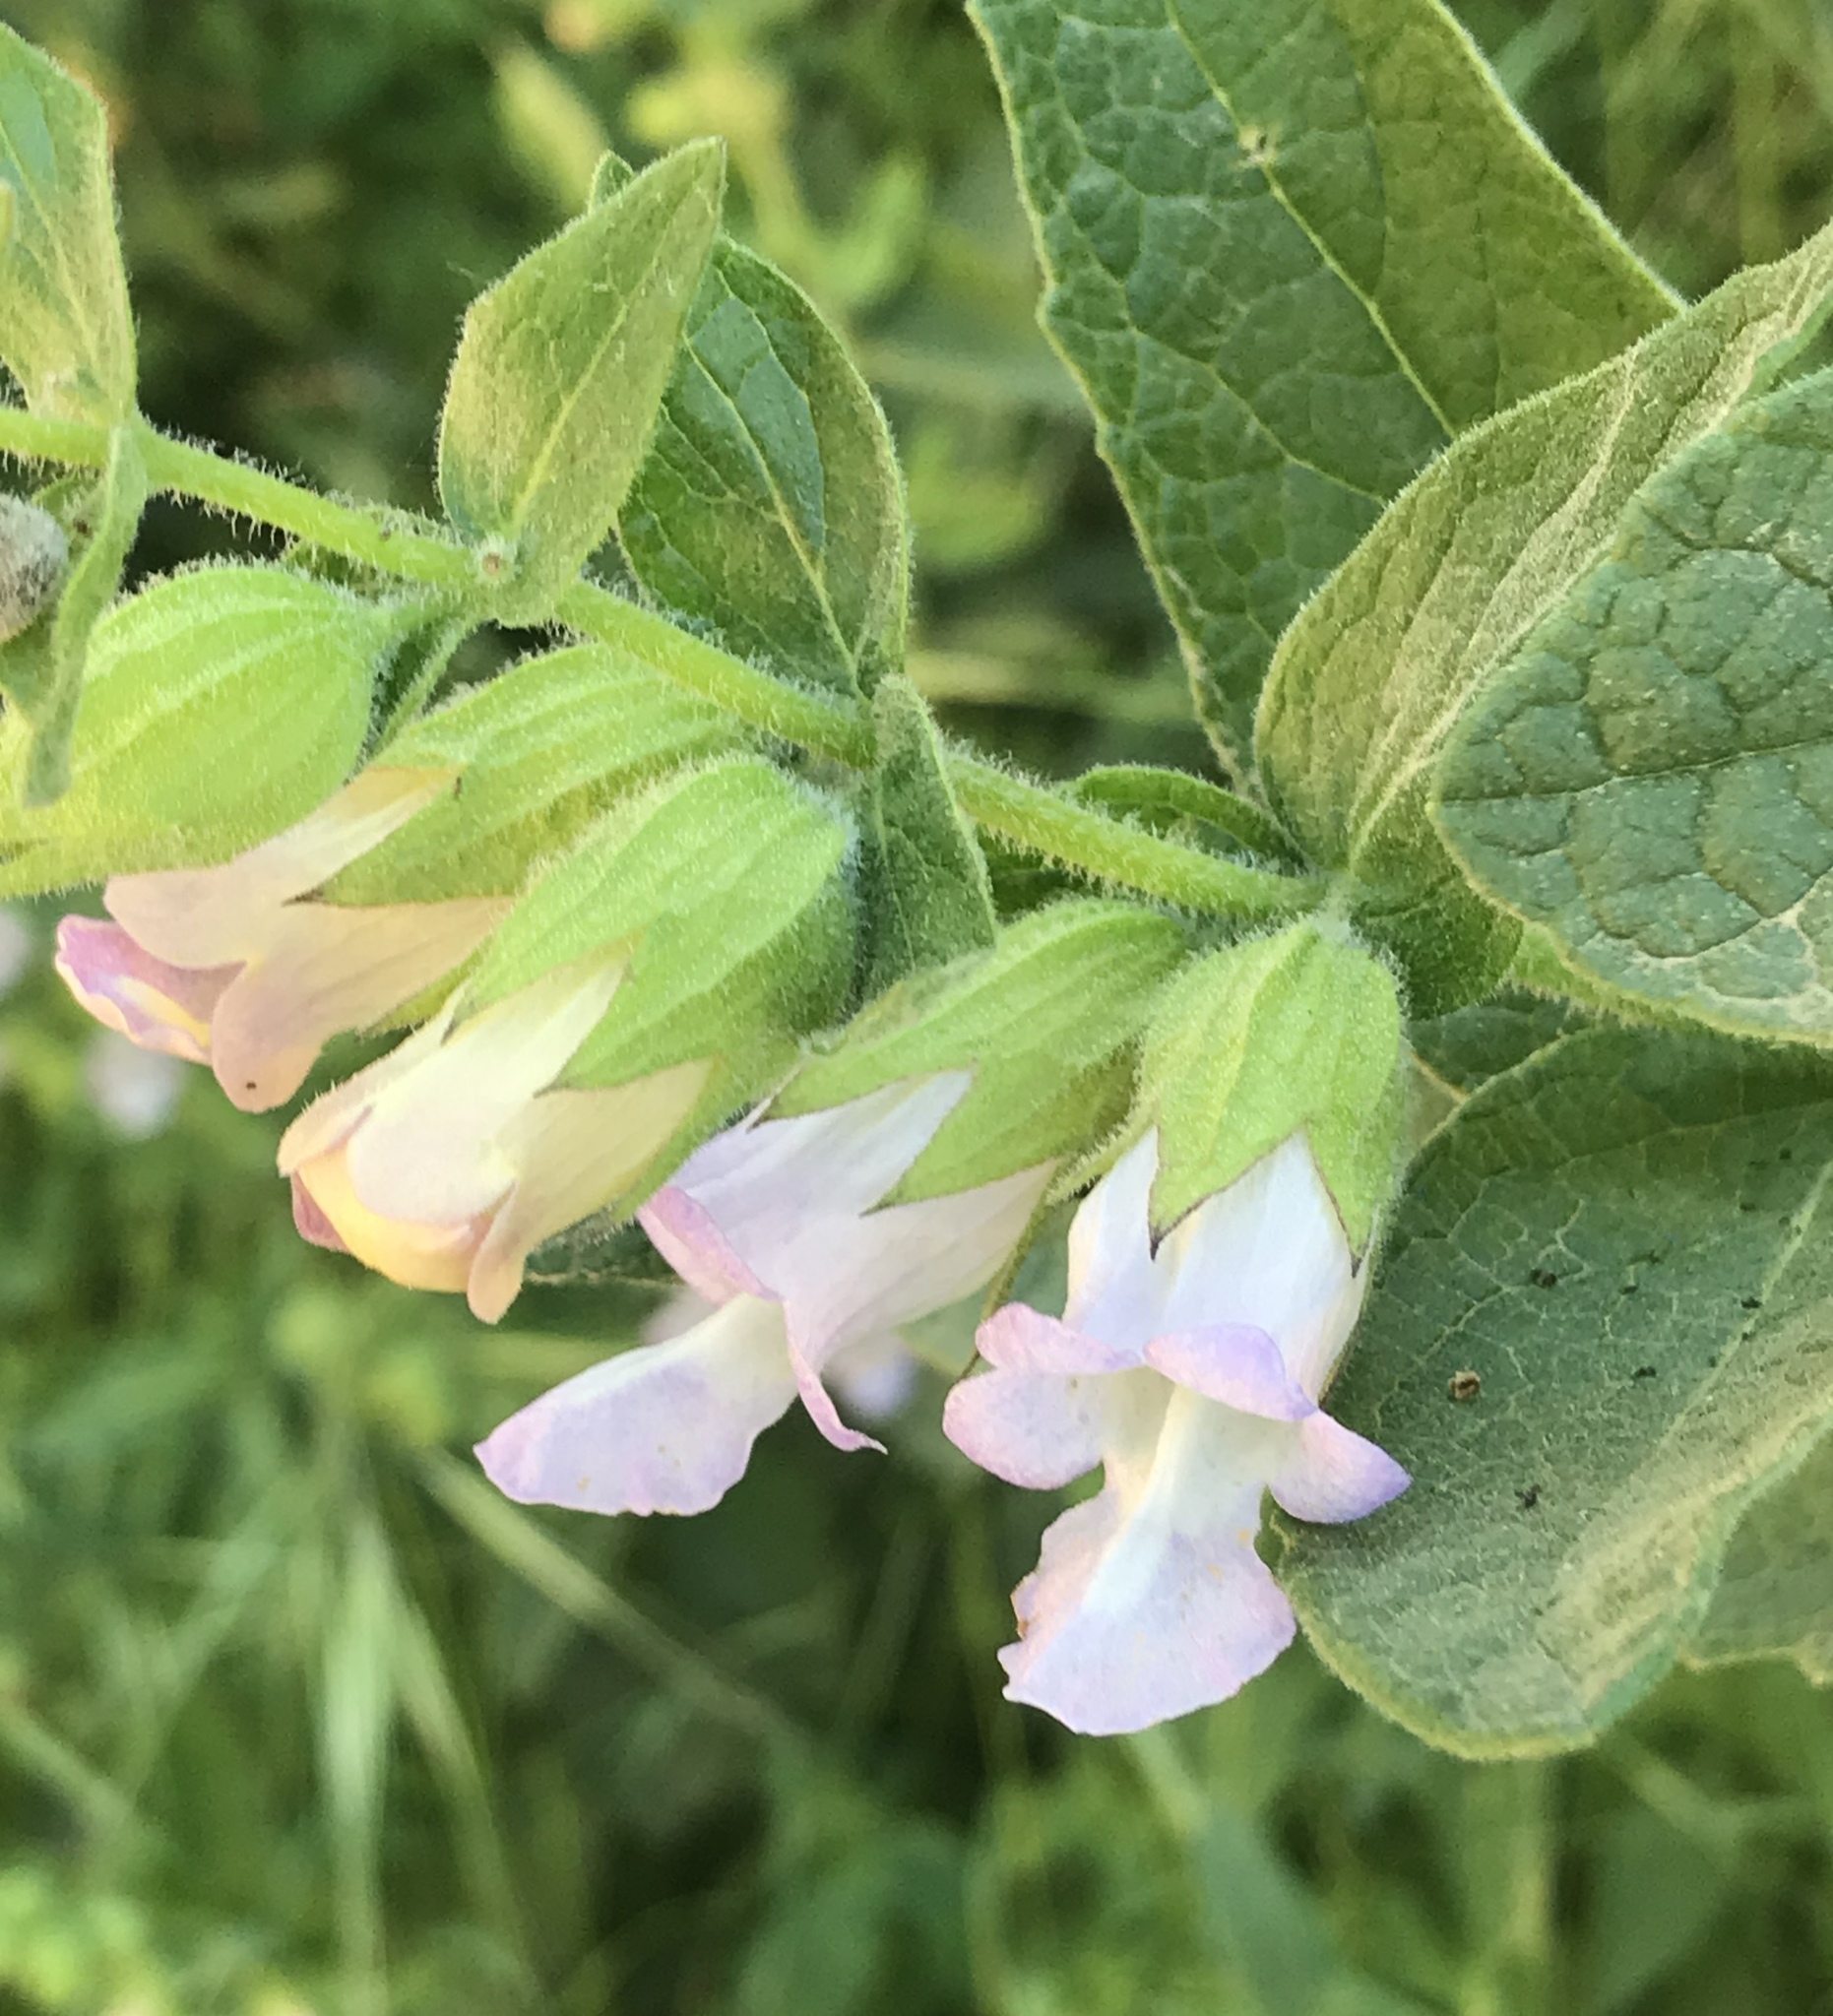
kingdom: Plantae
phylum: Tracheophyta
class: Magnoliopsida
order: Lamiales
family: Lamiaceae
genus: Lepechinia
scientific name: Lepechinia calycina
